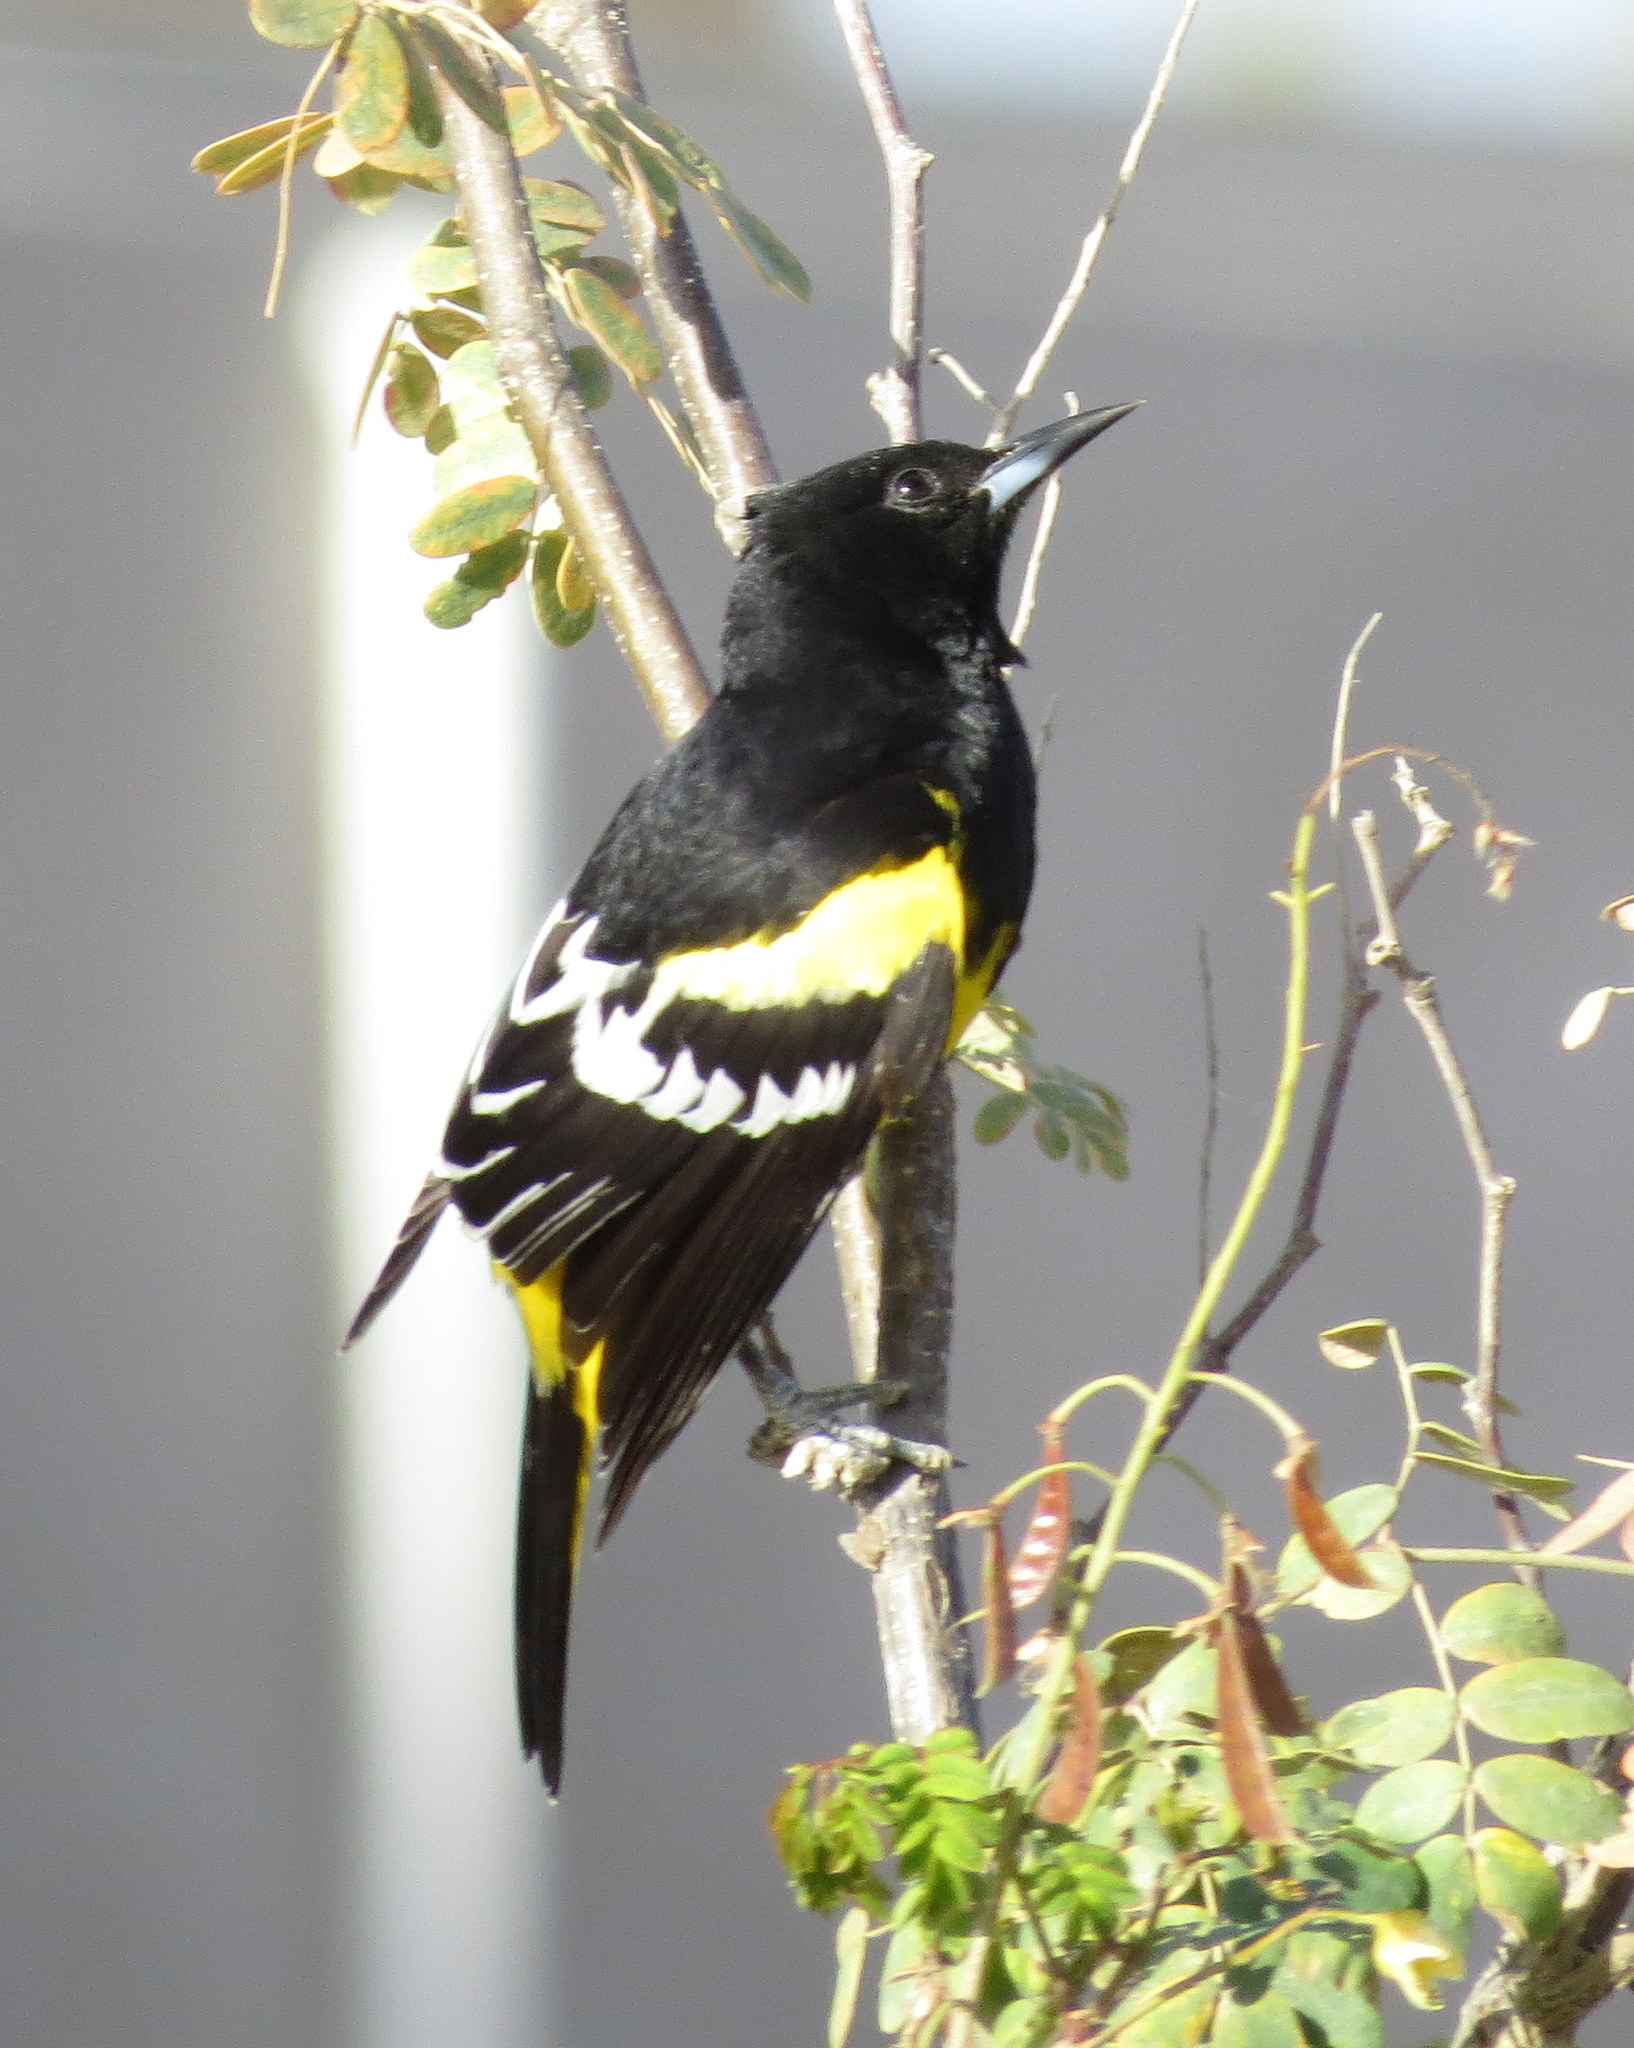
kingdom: Animalia
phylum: Chordata
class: Aves
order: Passeriformes
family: Icteridae
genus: Icterus
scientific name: Icterus parisorum
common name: Scott's oriole
